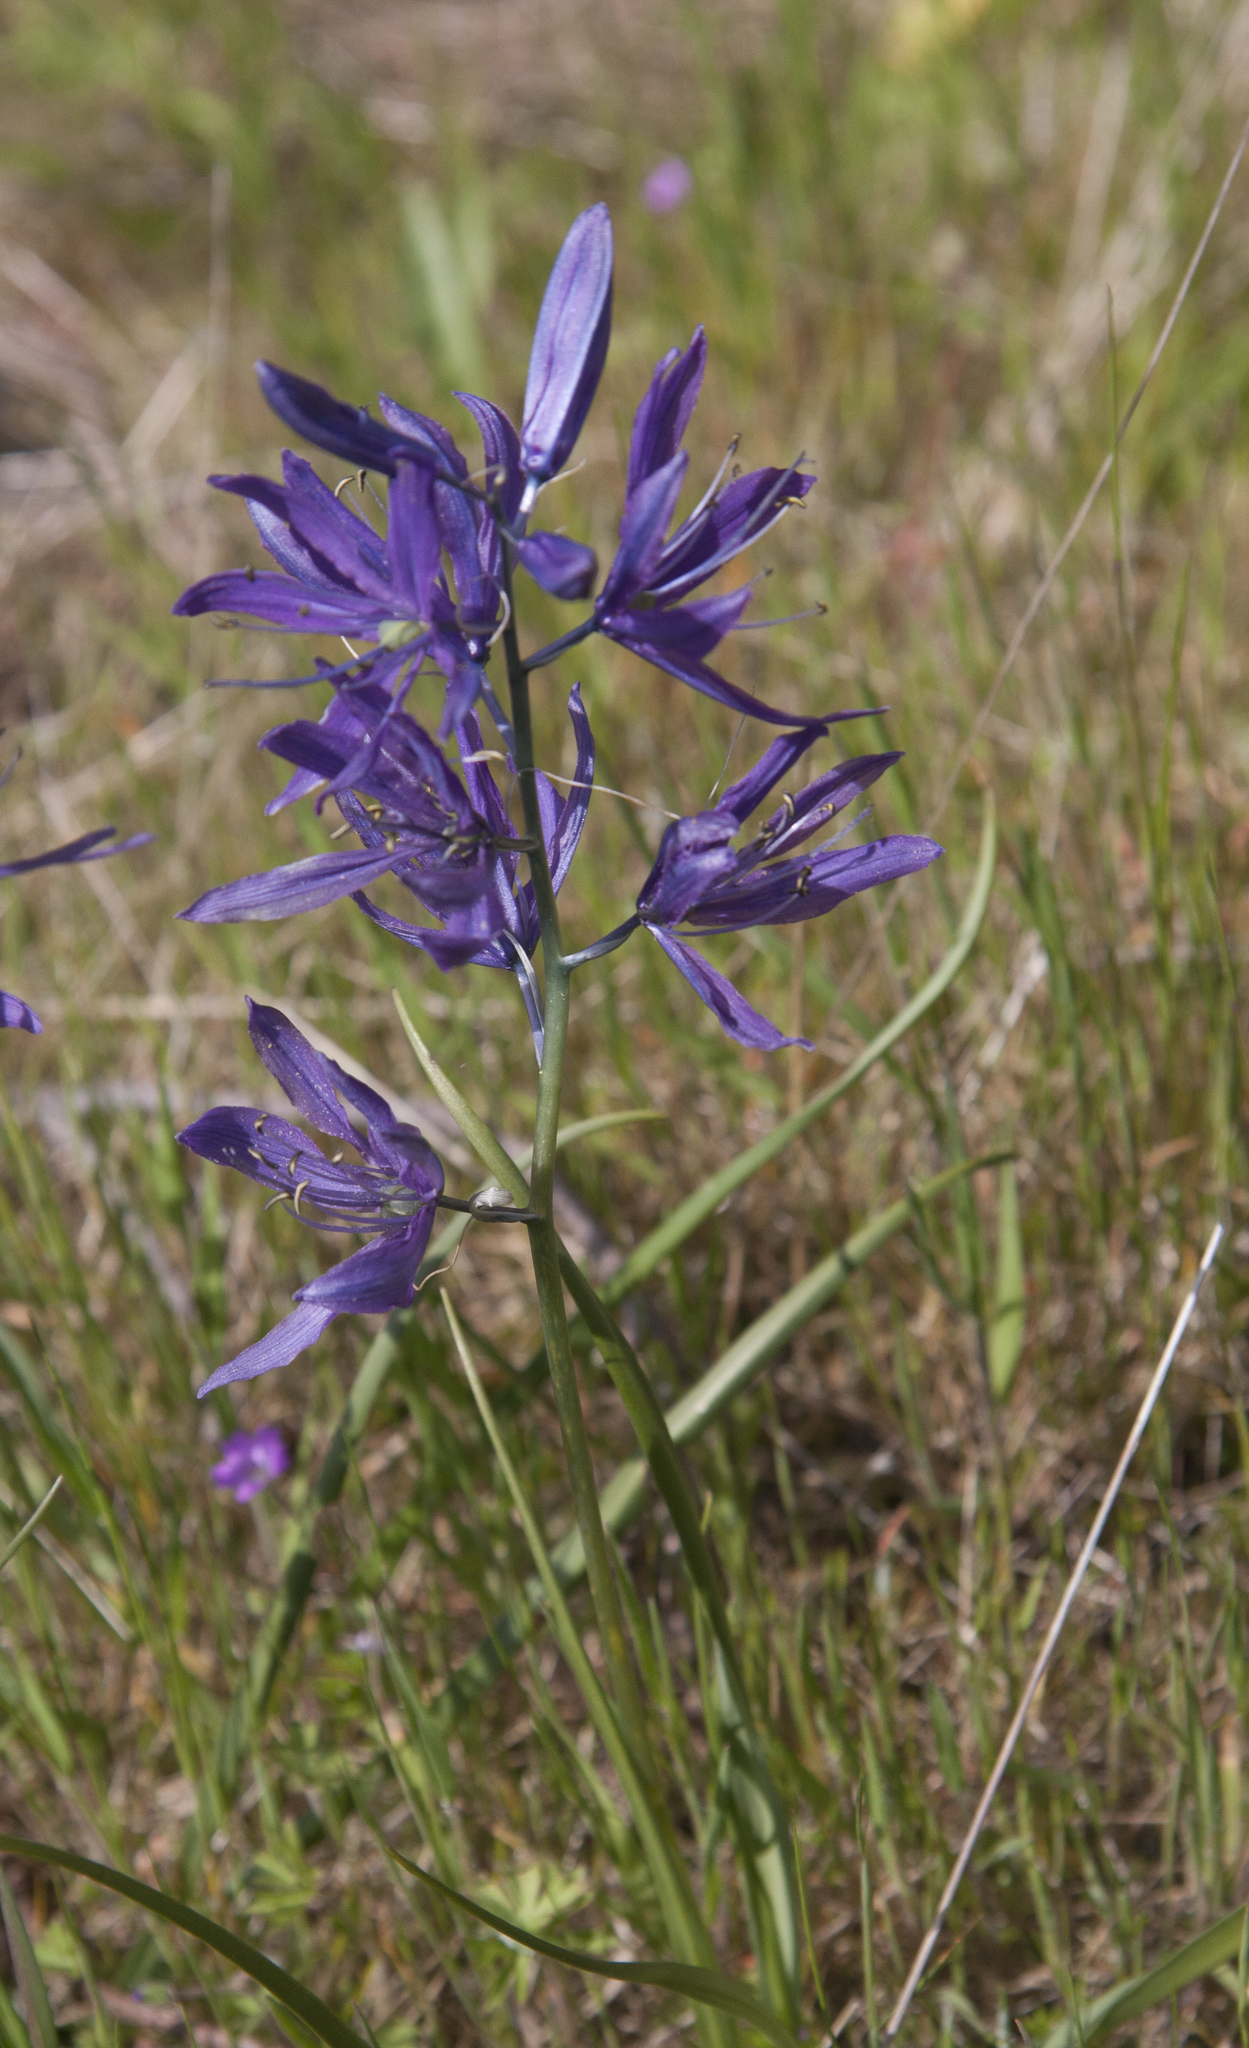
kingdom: Plantae
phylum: Tracheophyta
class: Liliopsida
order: Asparagales
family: Asparagaceae
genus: Camassia
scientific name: Camassia quamash
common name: Common camas
